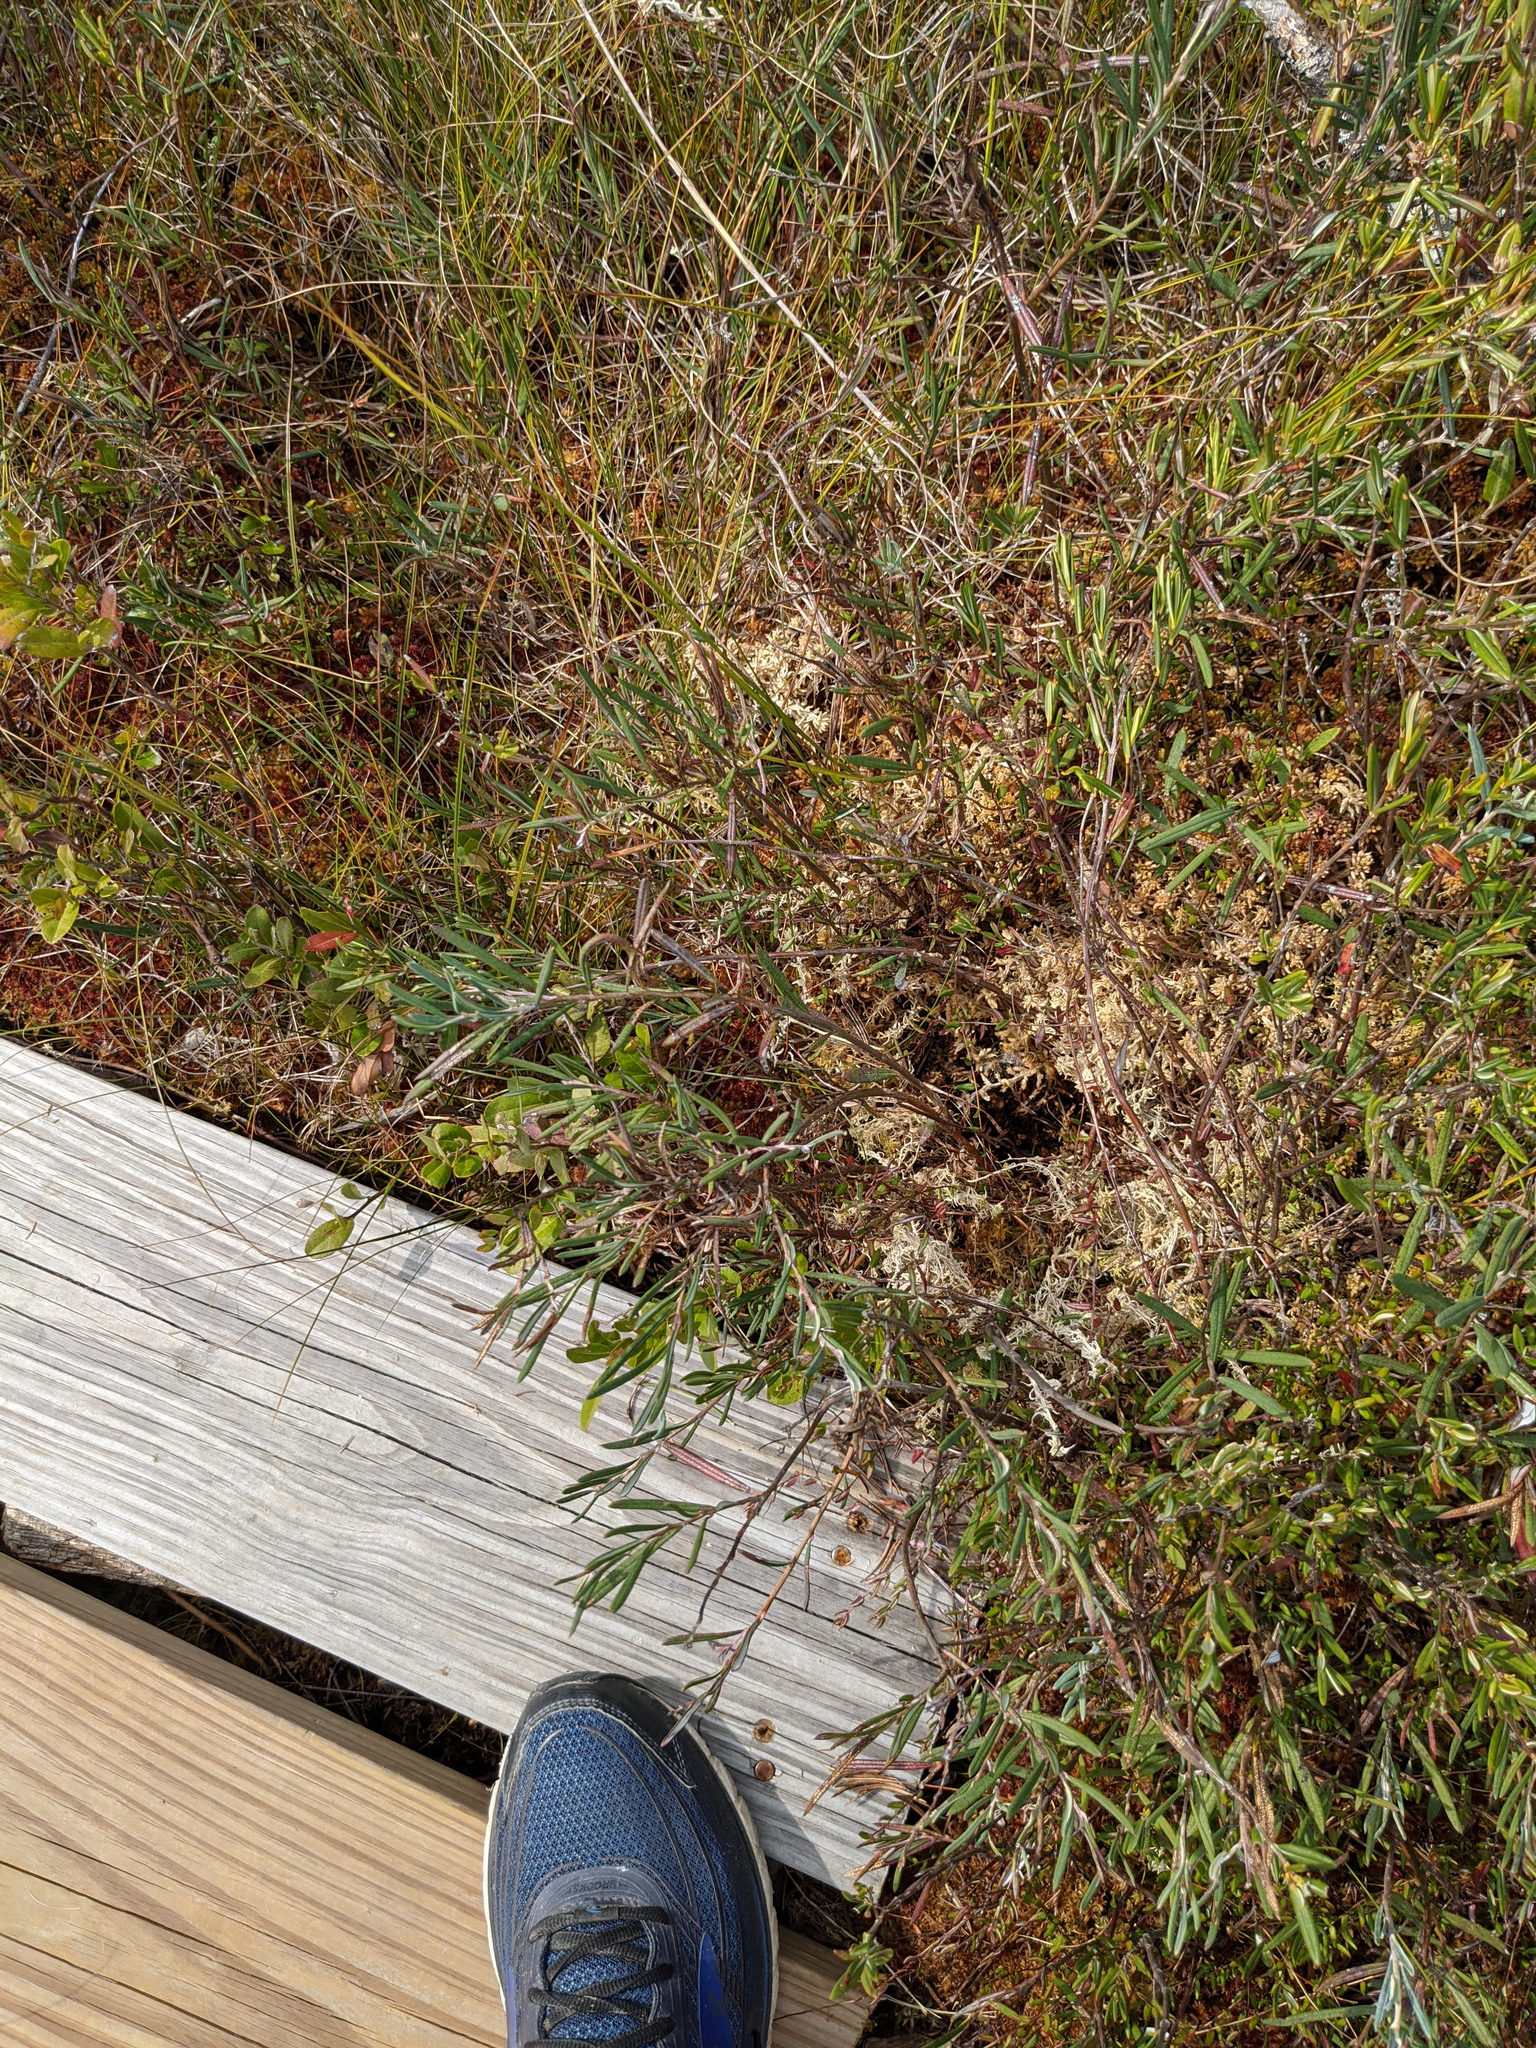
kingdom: Plantae
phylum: Tracheophyta
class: Magnoliopsida
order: Ericales
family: Ericaceae
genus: Andromeda
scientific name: Andromeda polifolia
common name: Bog-rosemary
